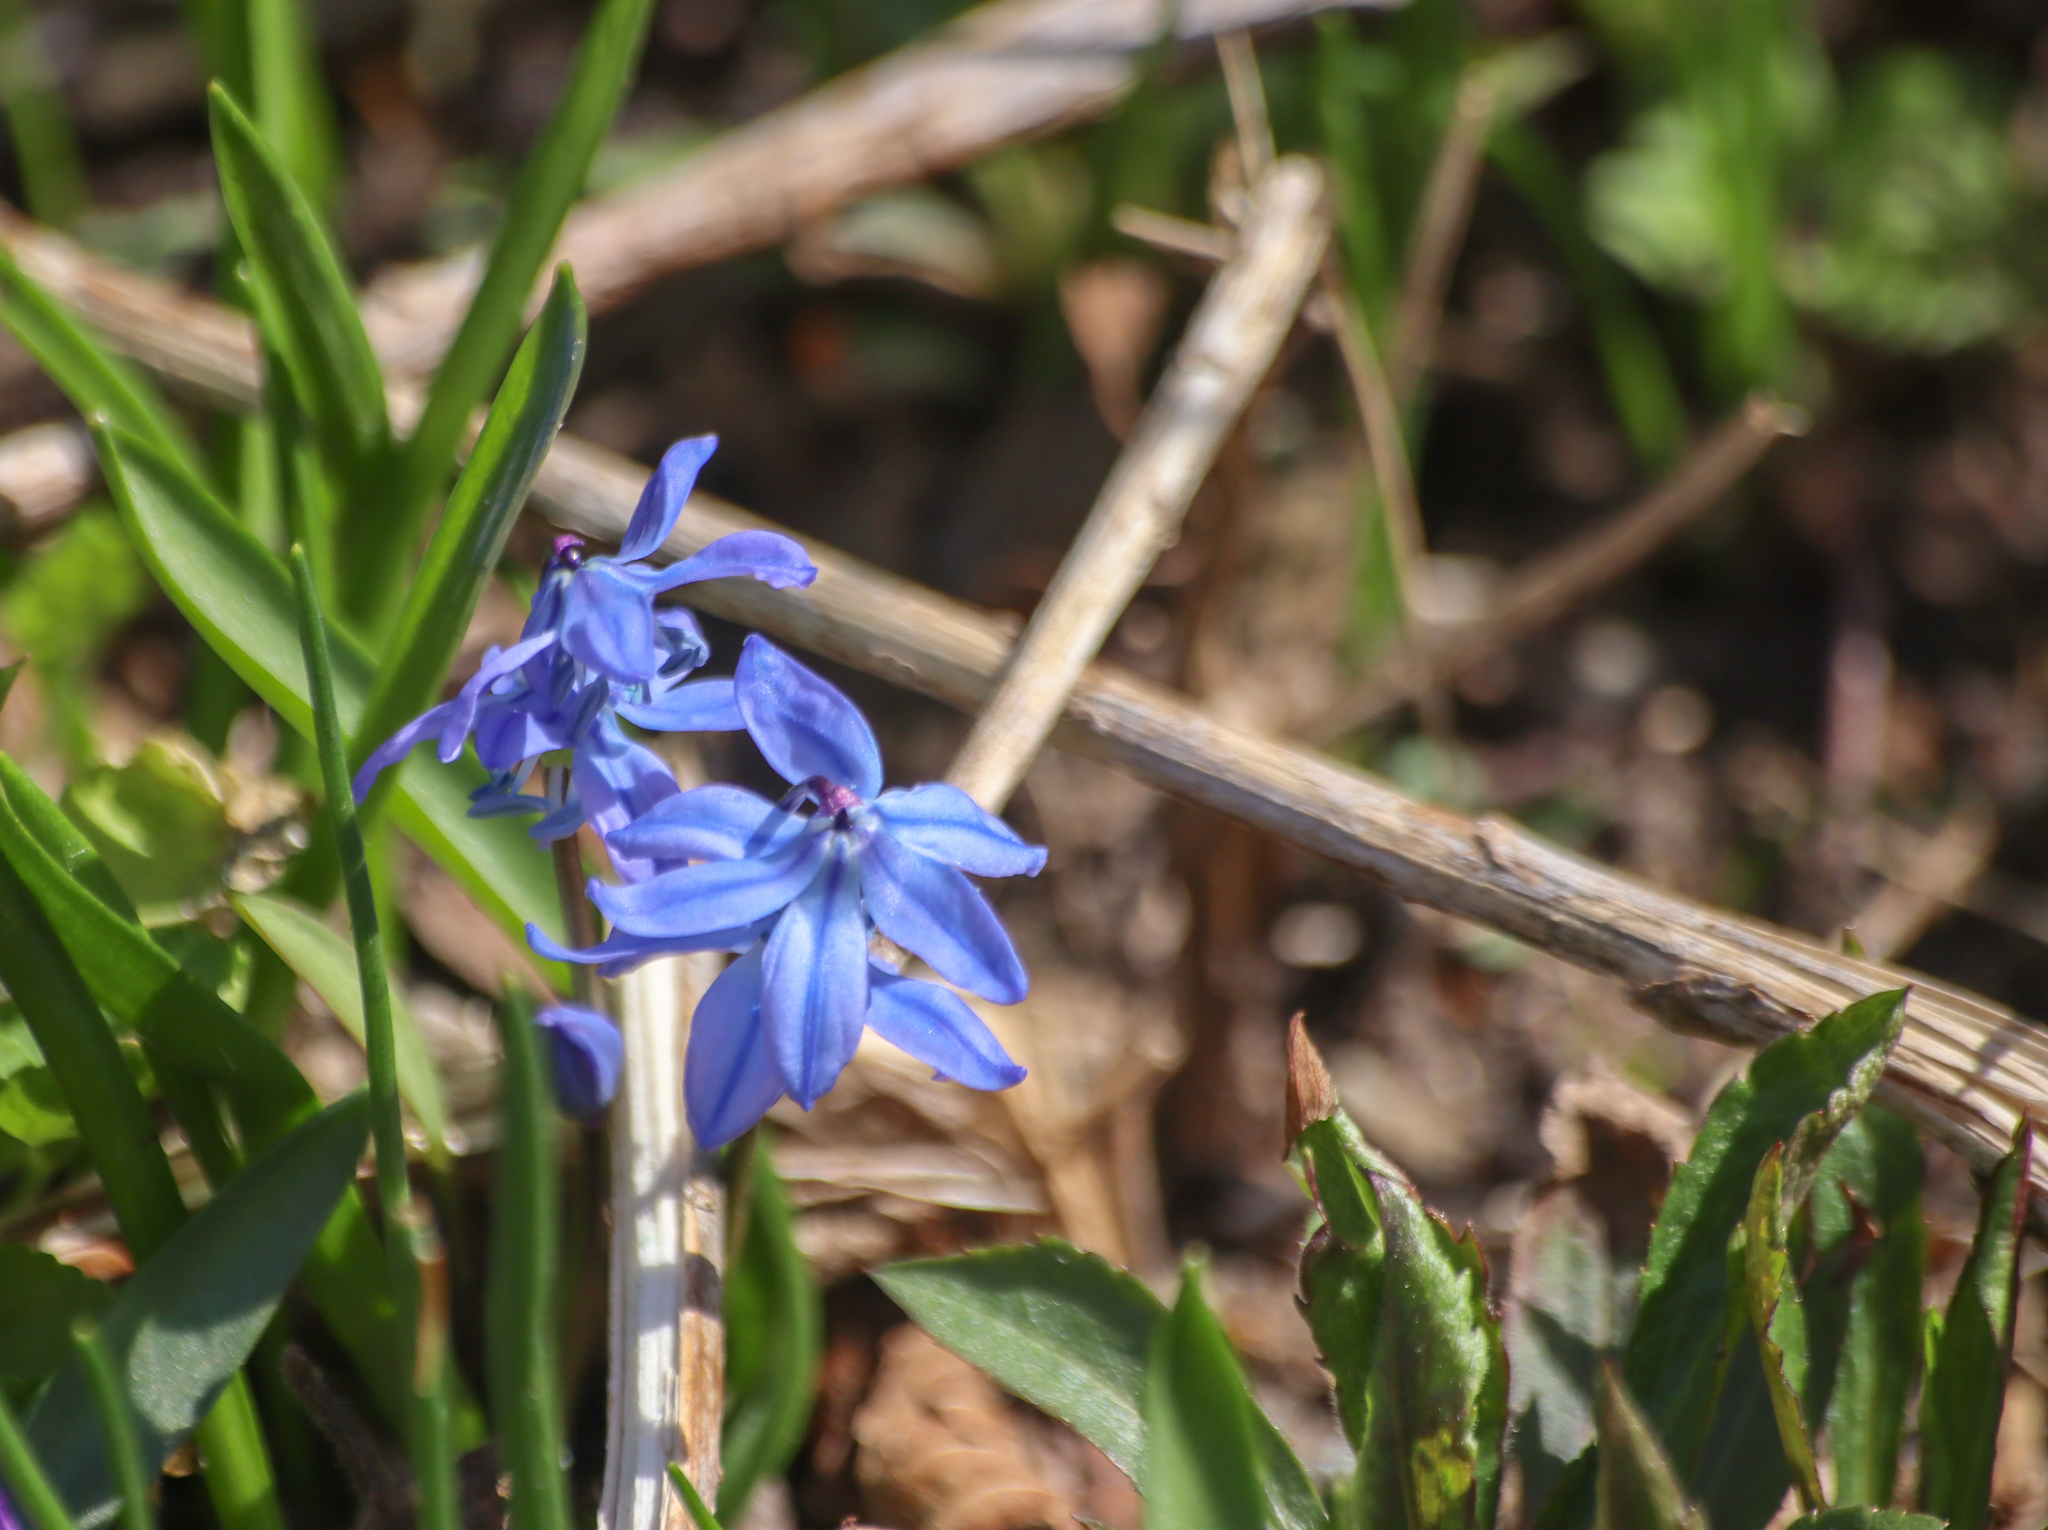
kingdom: Plantae
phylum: Tracheophyta
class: Liliopsida
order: Asparagales
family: Asparagaceae
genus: Scilla
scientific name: Scilla siberica
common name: Siberian squill
